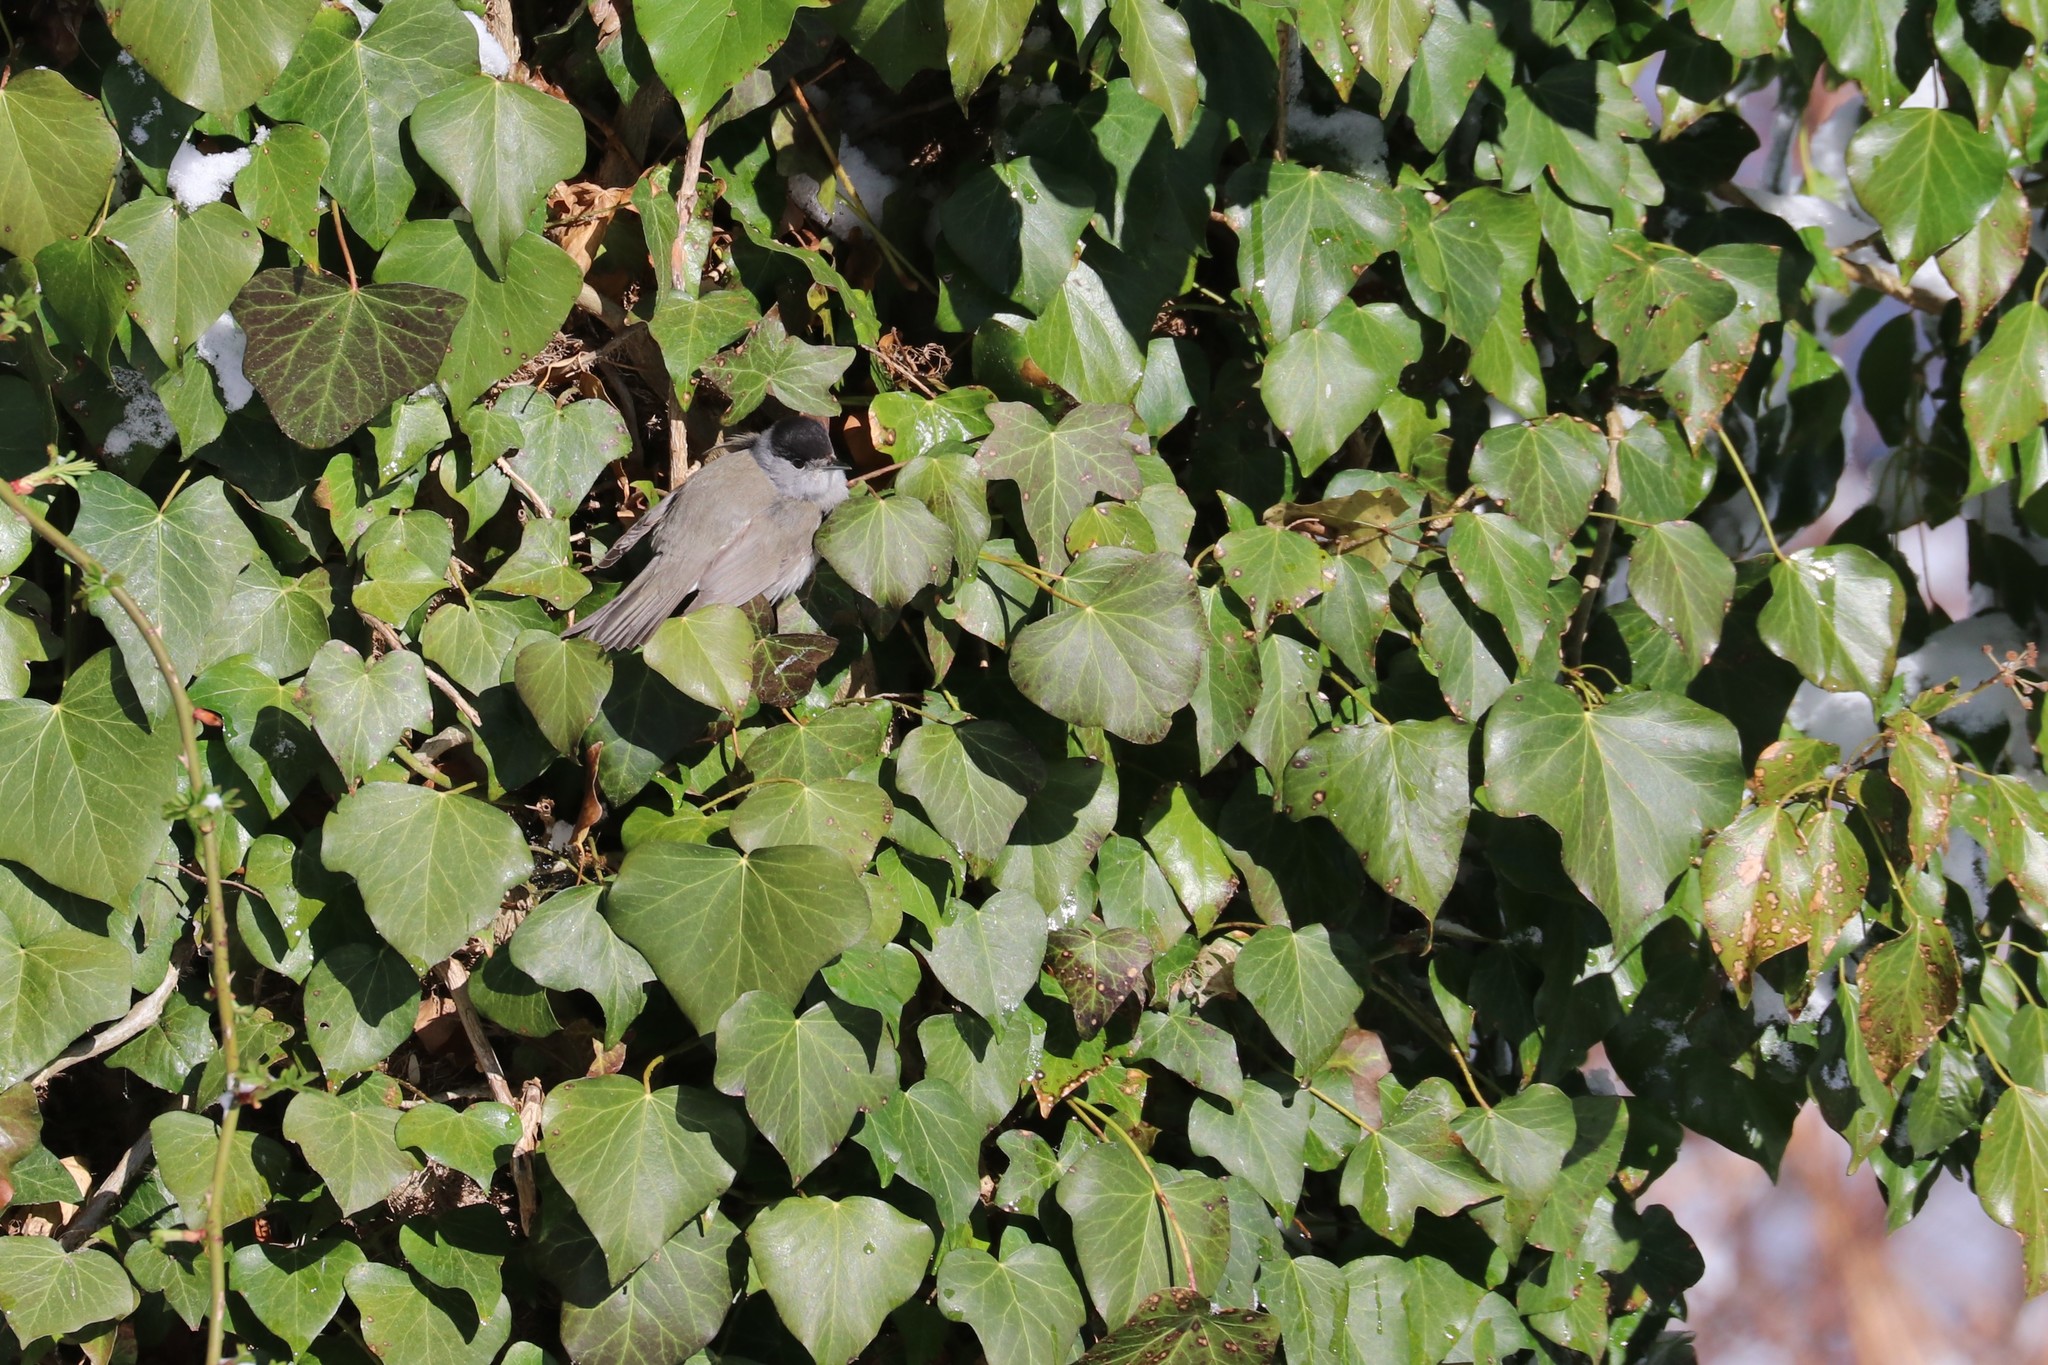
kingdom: Animalia
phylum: Chordata
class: Aves
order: Passeriformes
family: Sylviidae
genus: Sylvia
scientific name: Sylvia atricapilla
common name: Eurasian blackcap
